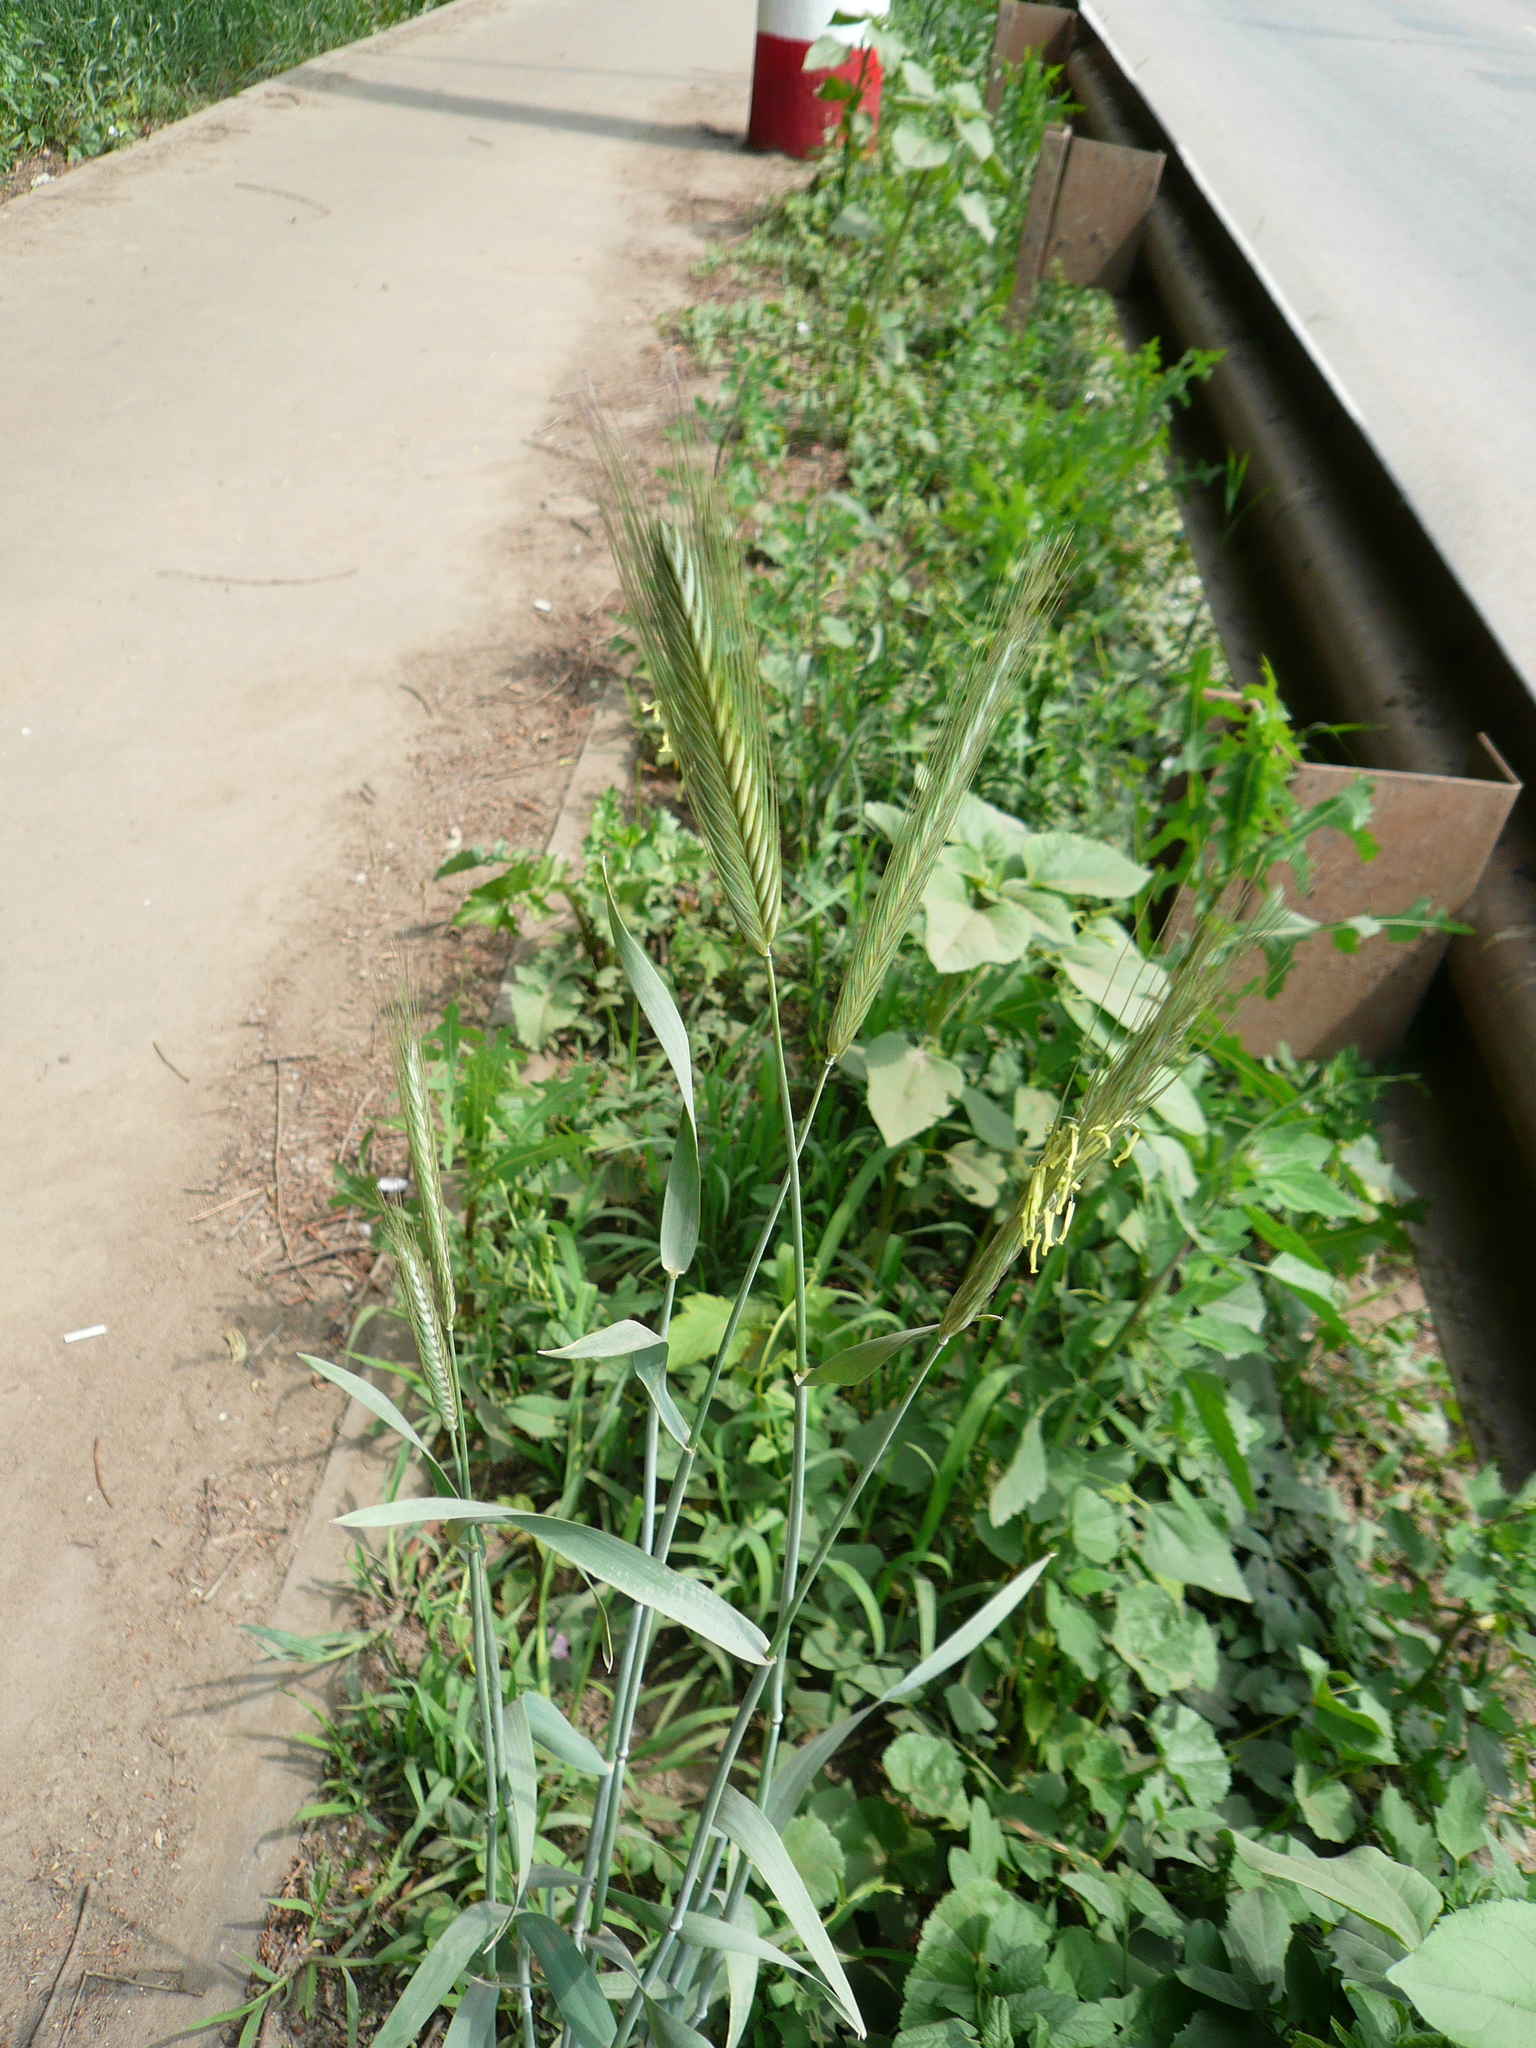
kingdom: Plantae
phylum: Tracheophyta
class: Liliopsida
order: Poales
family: Poaceae
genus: Secale
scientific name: Secale cereale
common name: Rye
